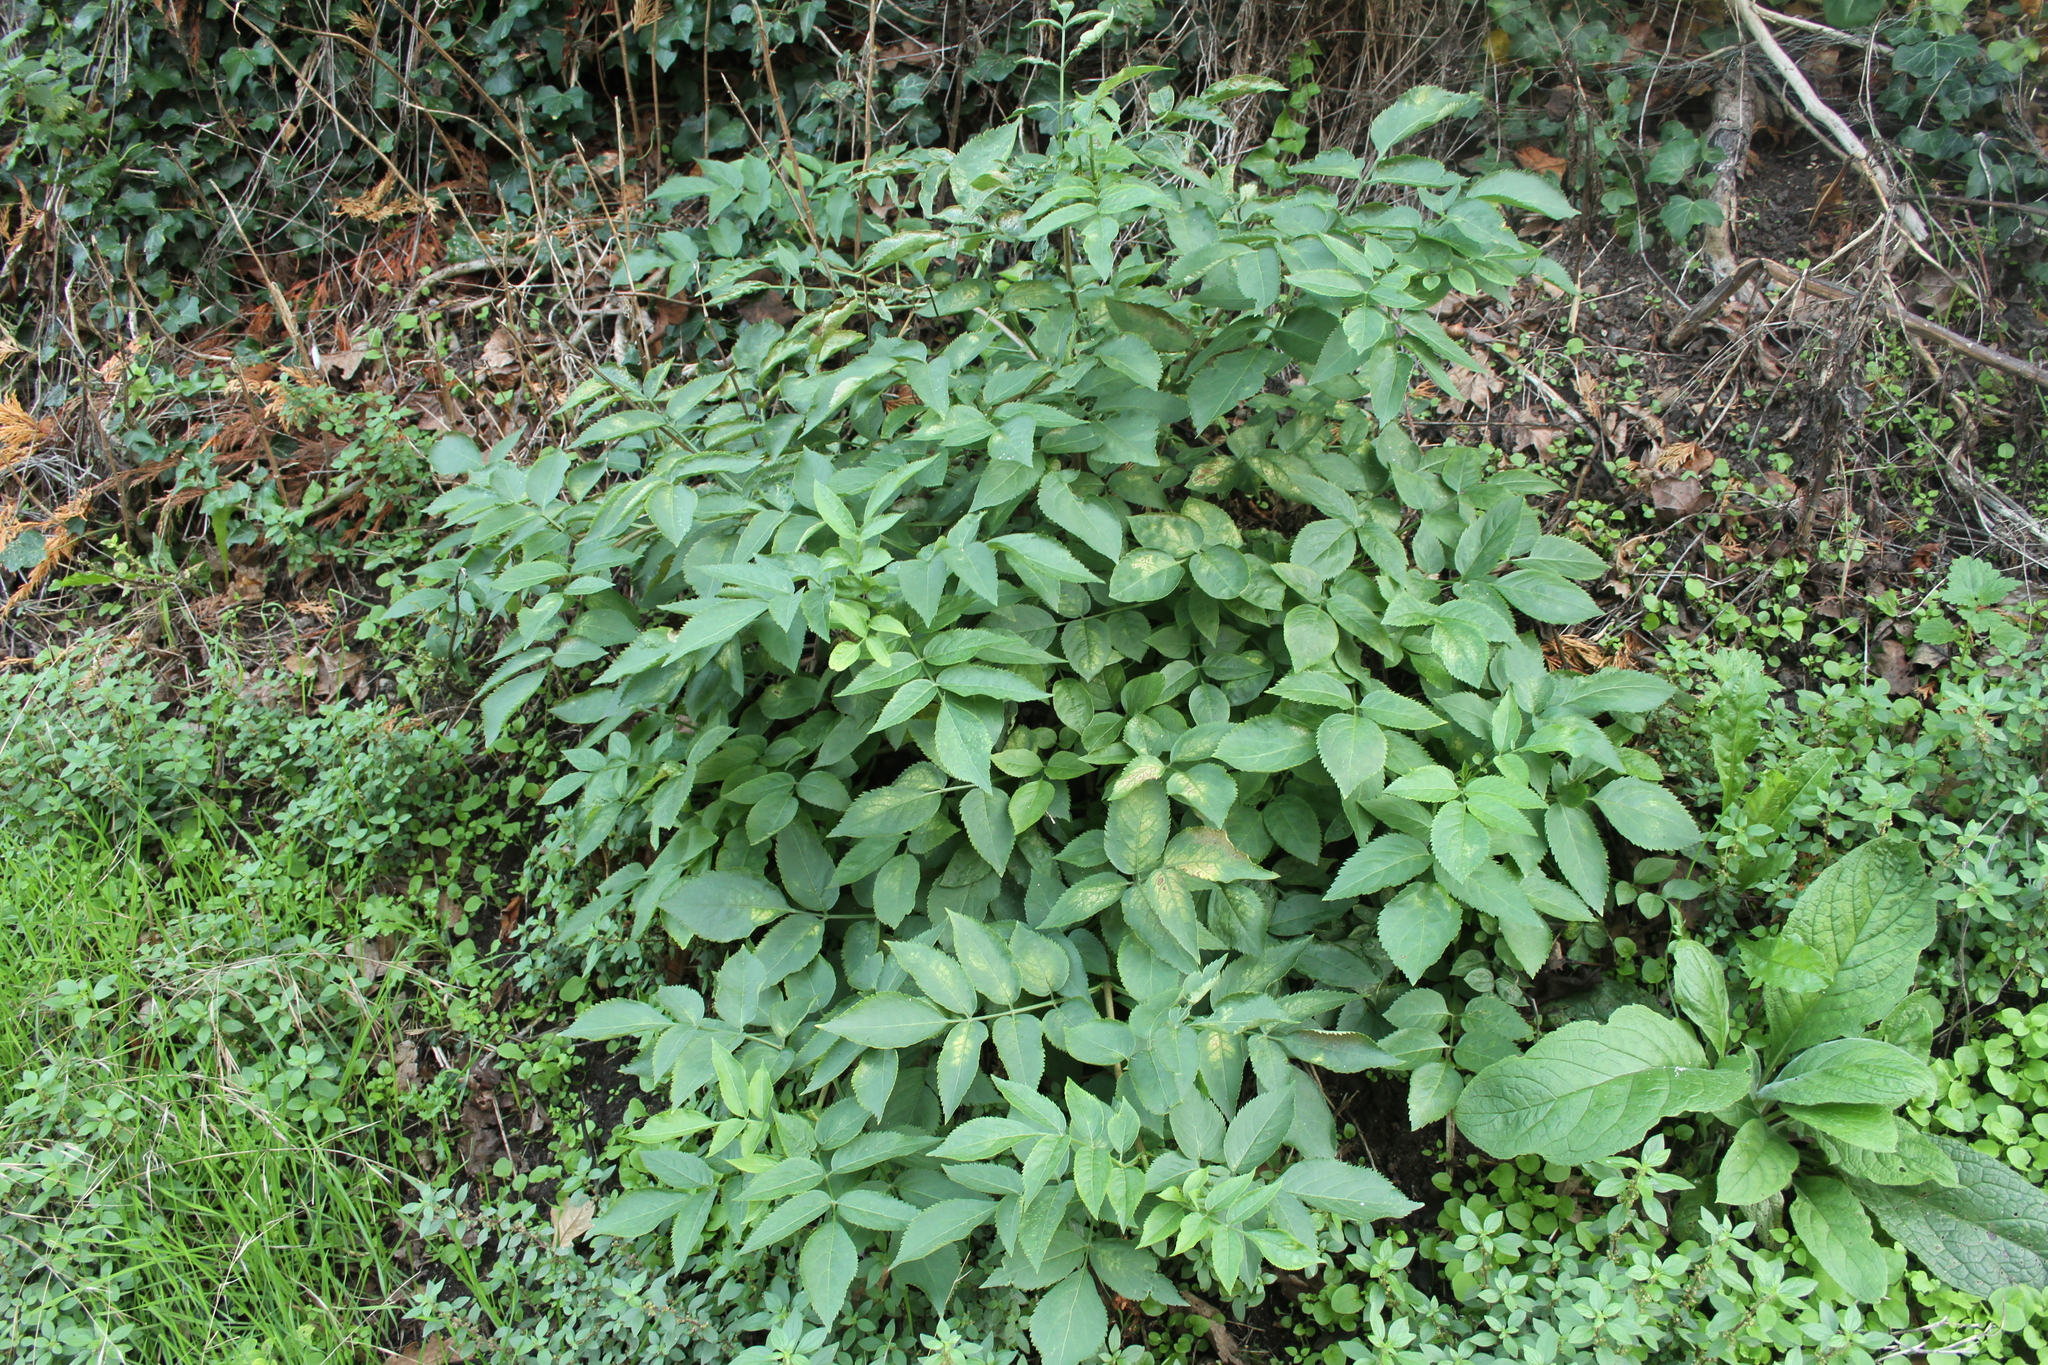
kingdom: Plantae
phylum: Tracheophyta
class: Magnoliopsida
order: Dipsacales
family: Viburnaceae
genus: Sambucus
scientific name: Sambucus nigra
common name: Elder
